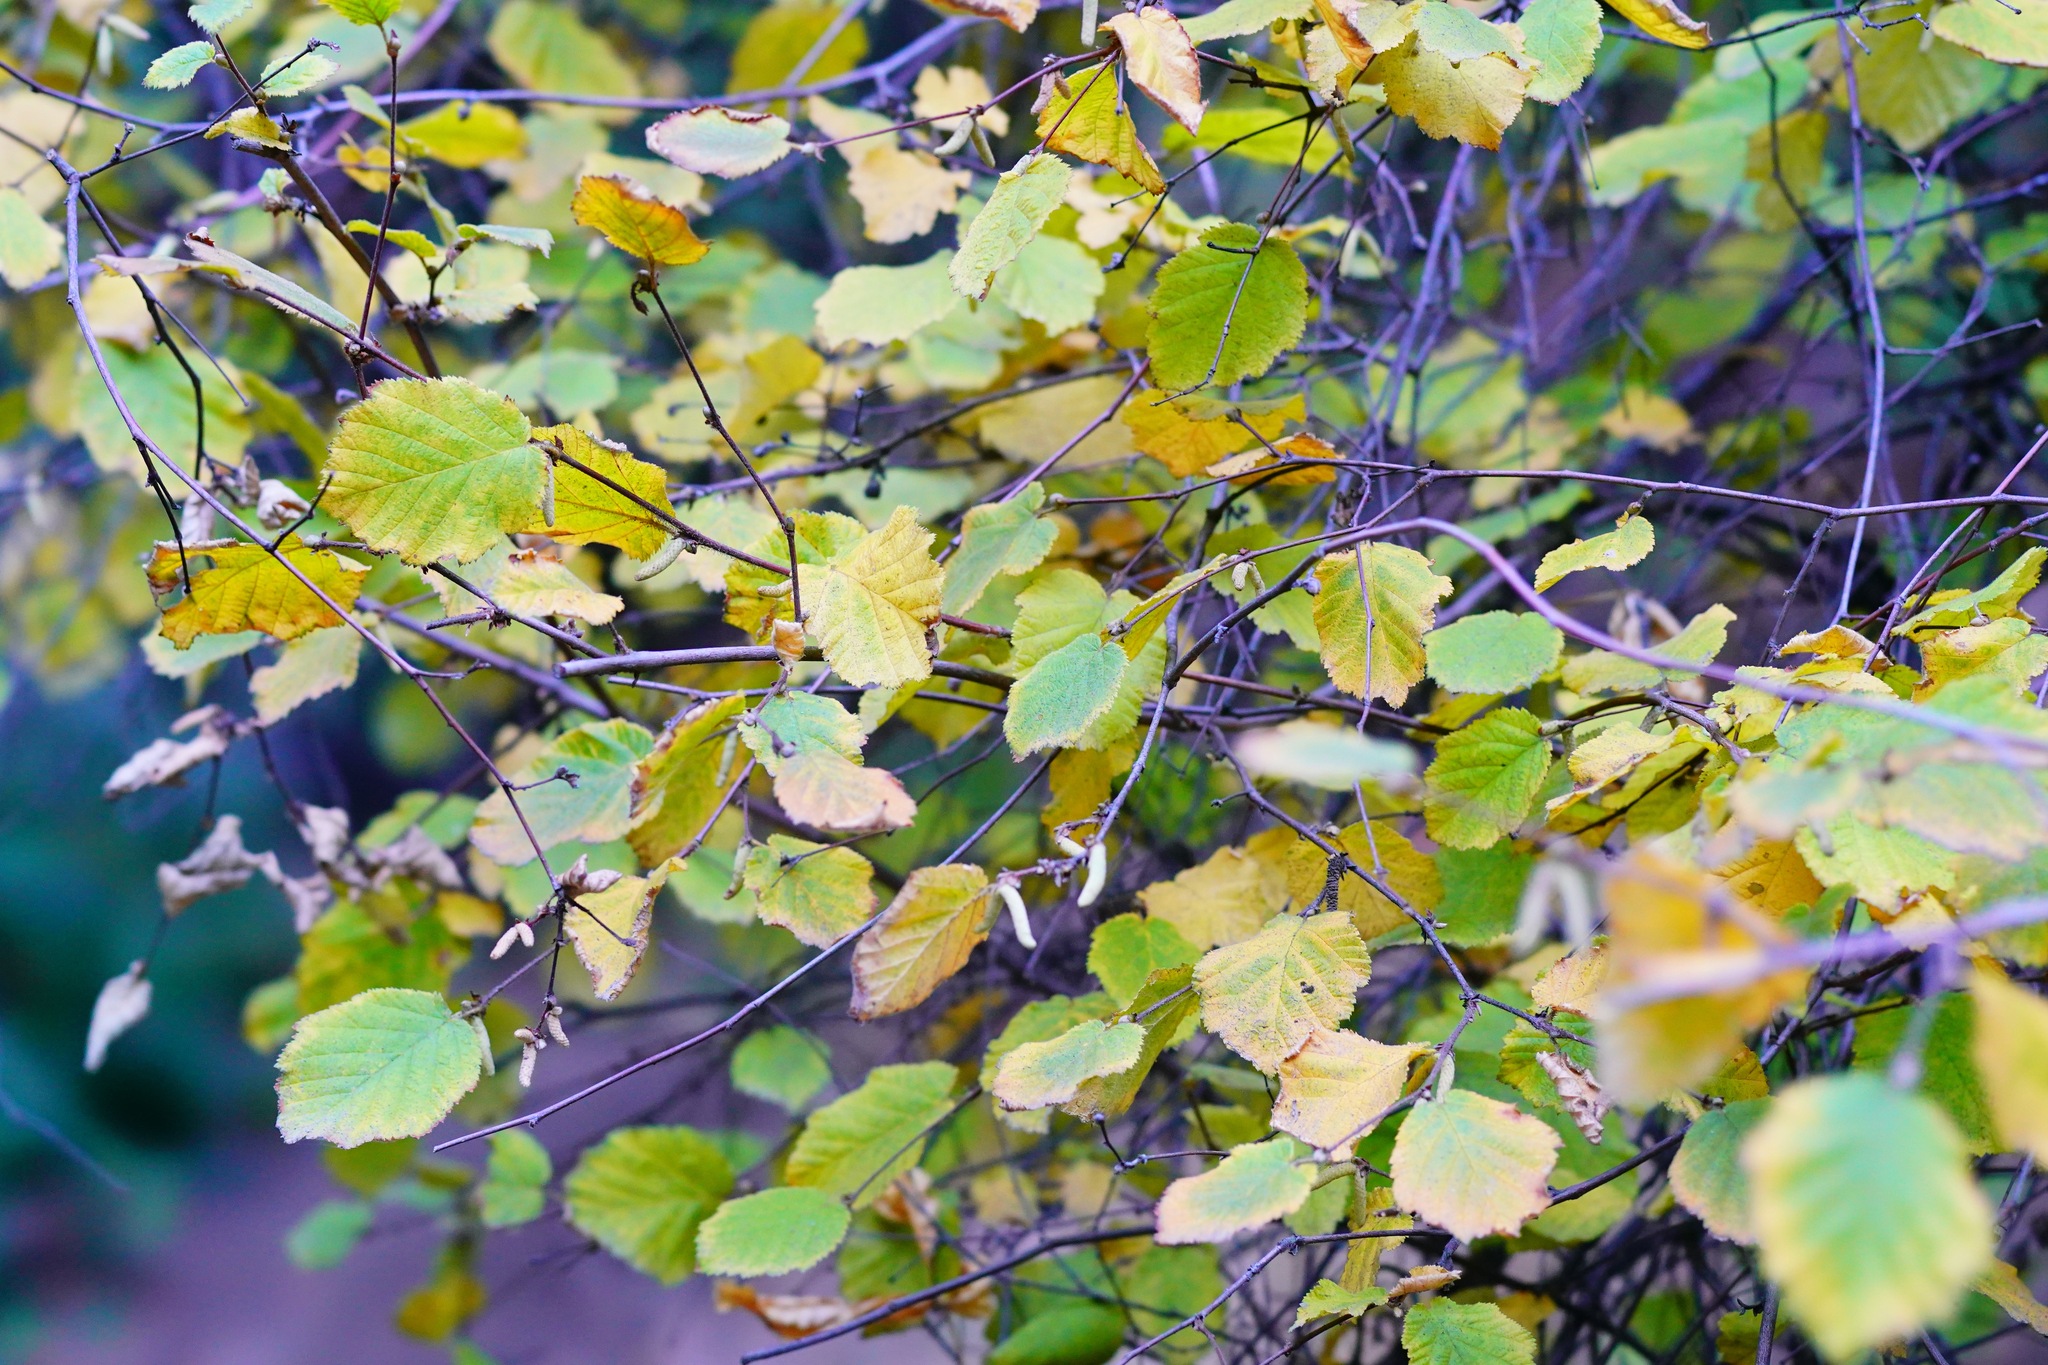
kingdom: Plantae
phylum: Tracheophyta
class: Magnoliopsida
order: Fagales
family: Betulaceae
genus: Corylus
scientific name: Corylus cornuta
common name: Beaked hazel
